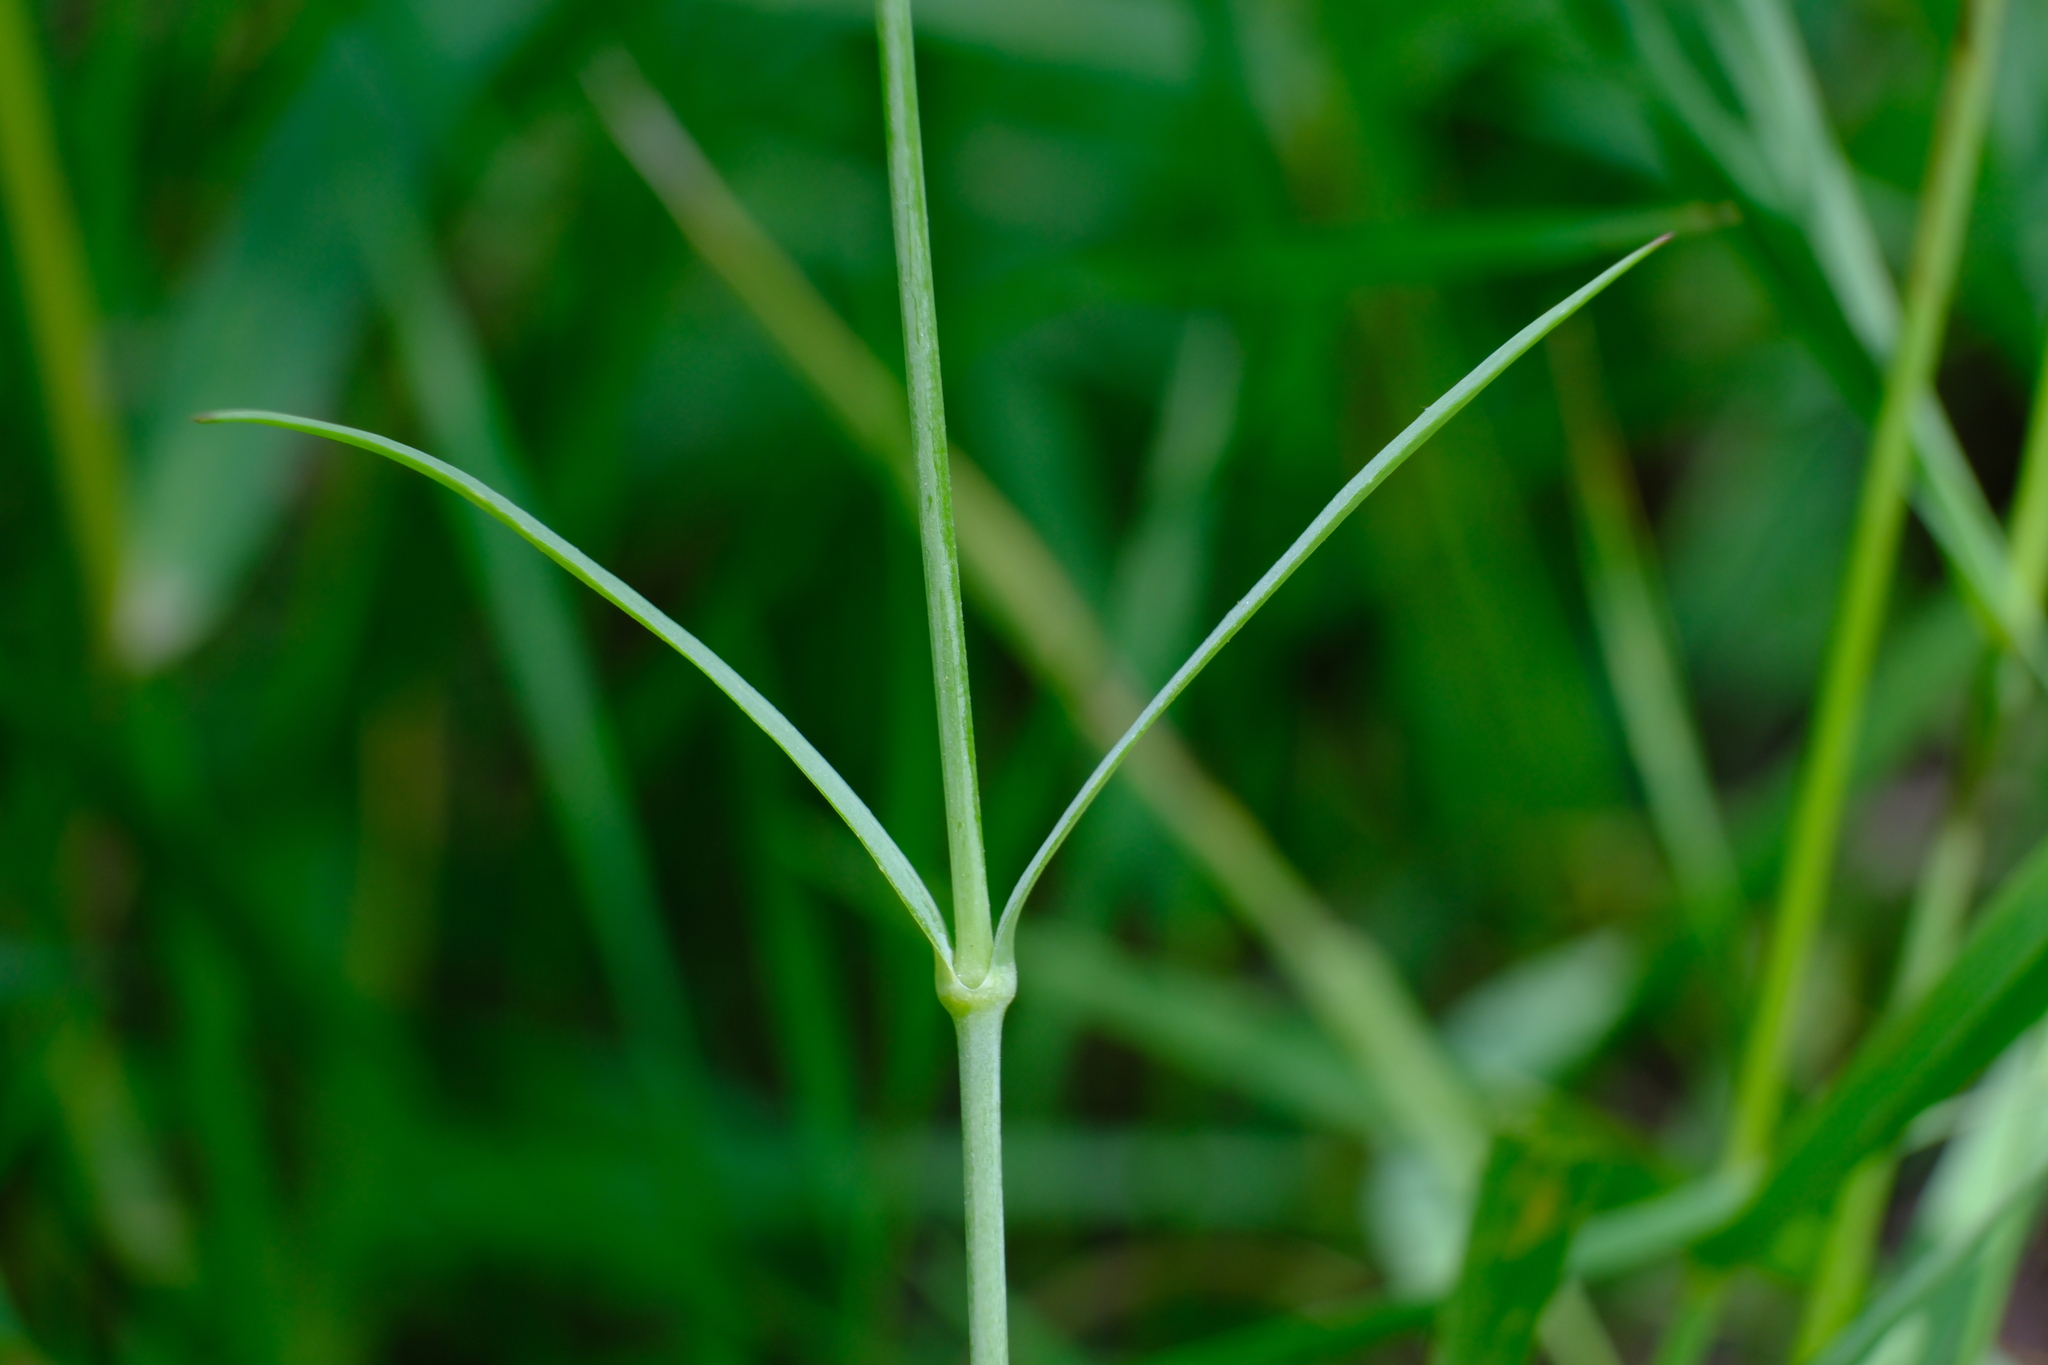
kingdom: Plantae
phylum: Tracheophyta
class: Magnoliopsida
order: Caryophyllales
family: Caryophyllaceae
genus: Silene
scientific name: Silene vulgaris
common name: Bladder campion
